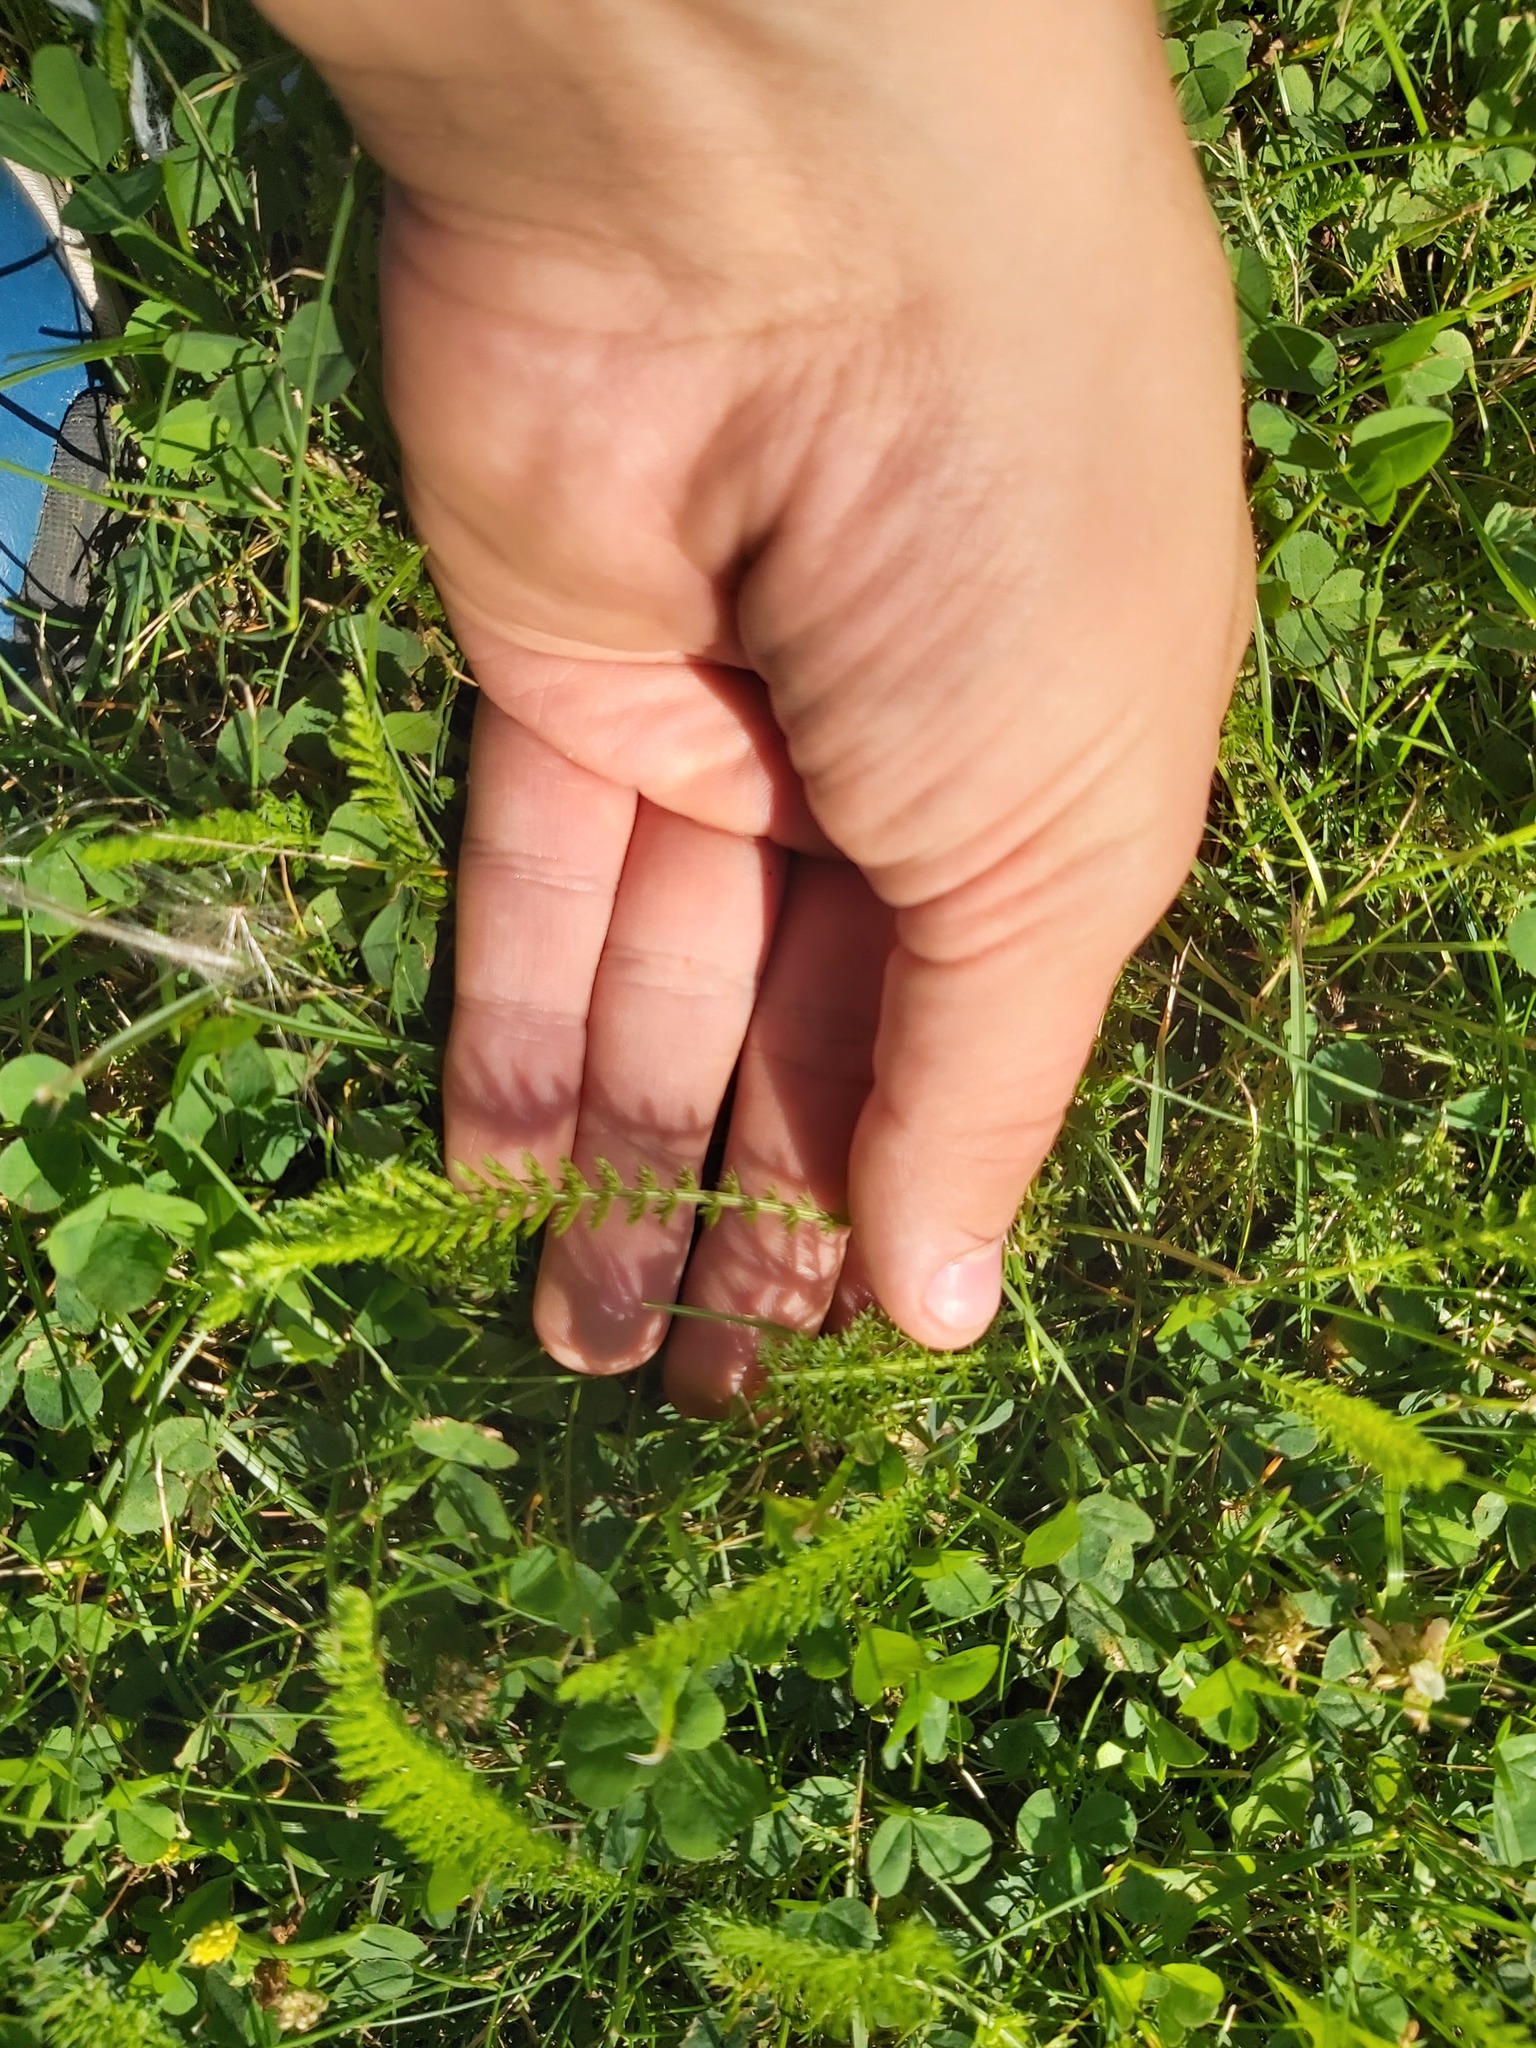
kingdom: Plantae
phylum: Tracheophyta
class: Magnoliopsida
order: Asterales
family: Asteraceae
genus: Achillea
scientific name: Achillea millefolium
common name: Yarrow
